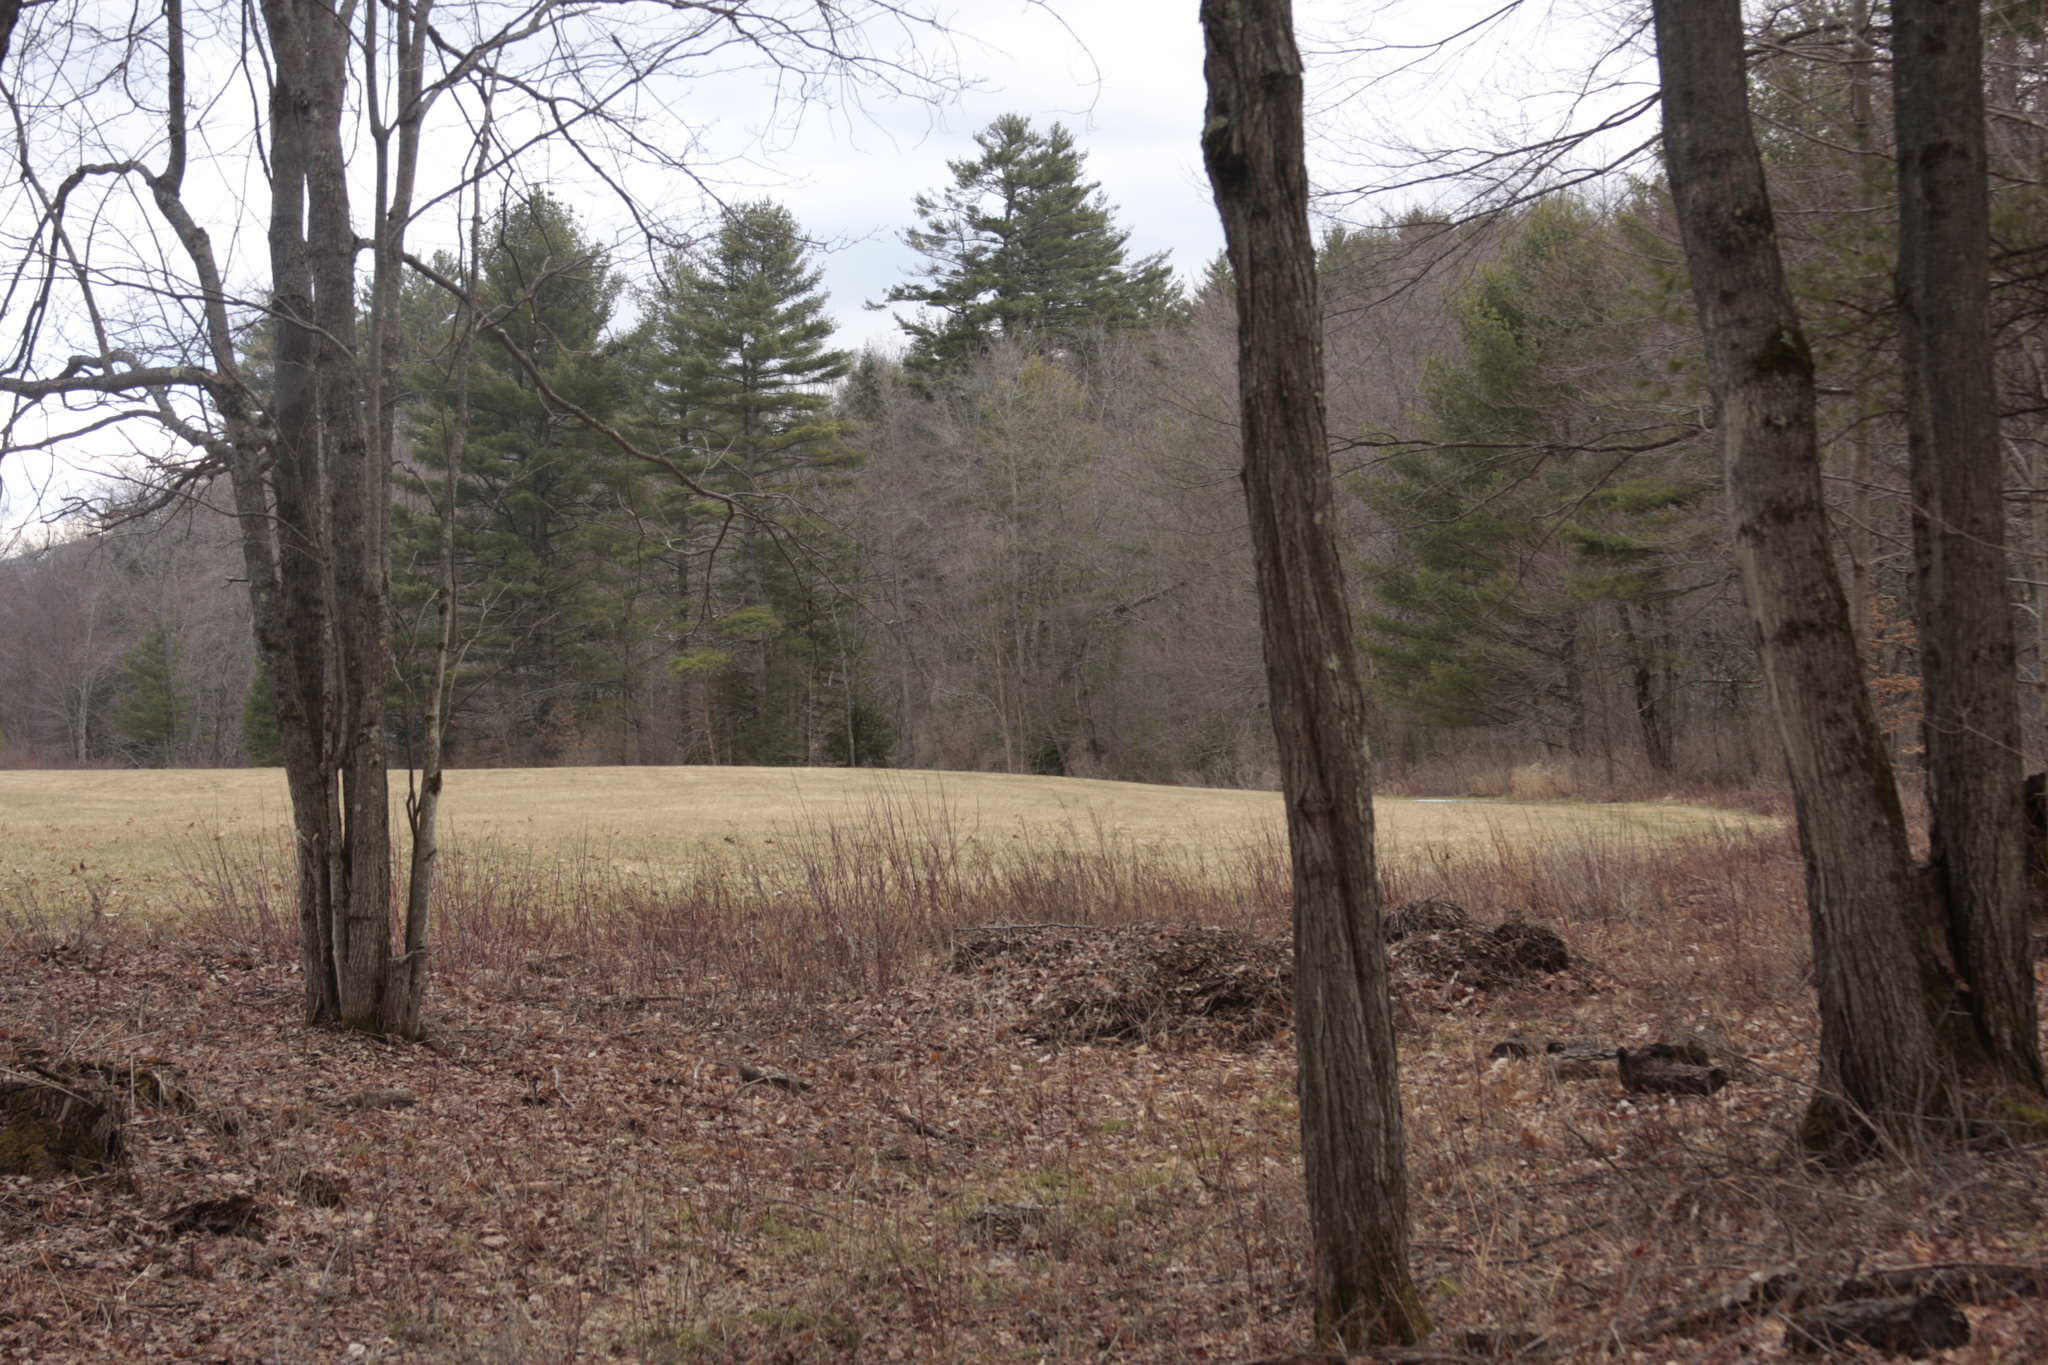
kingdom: Plantae
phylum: Tracheophyta
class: Pinopsida
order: Pinales
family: Pinaceae
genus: Pinus
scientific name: Pinus strobus
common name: Weymouth pine
